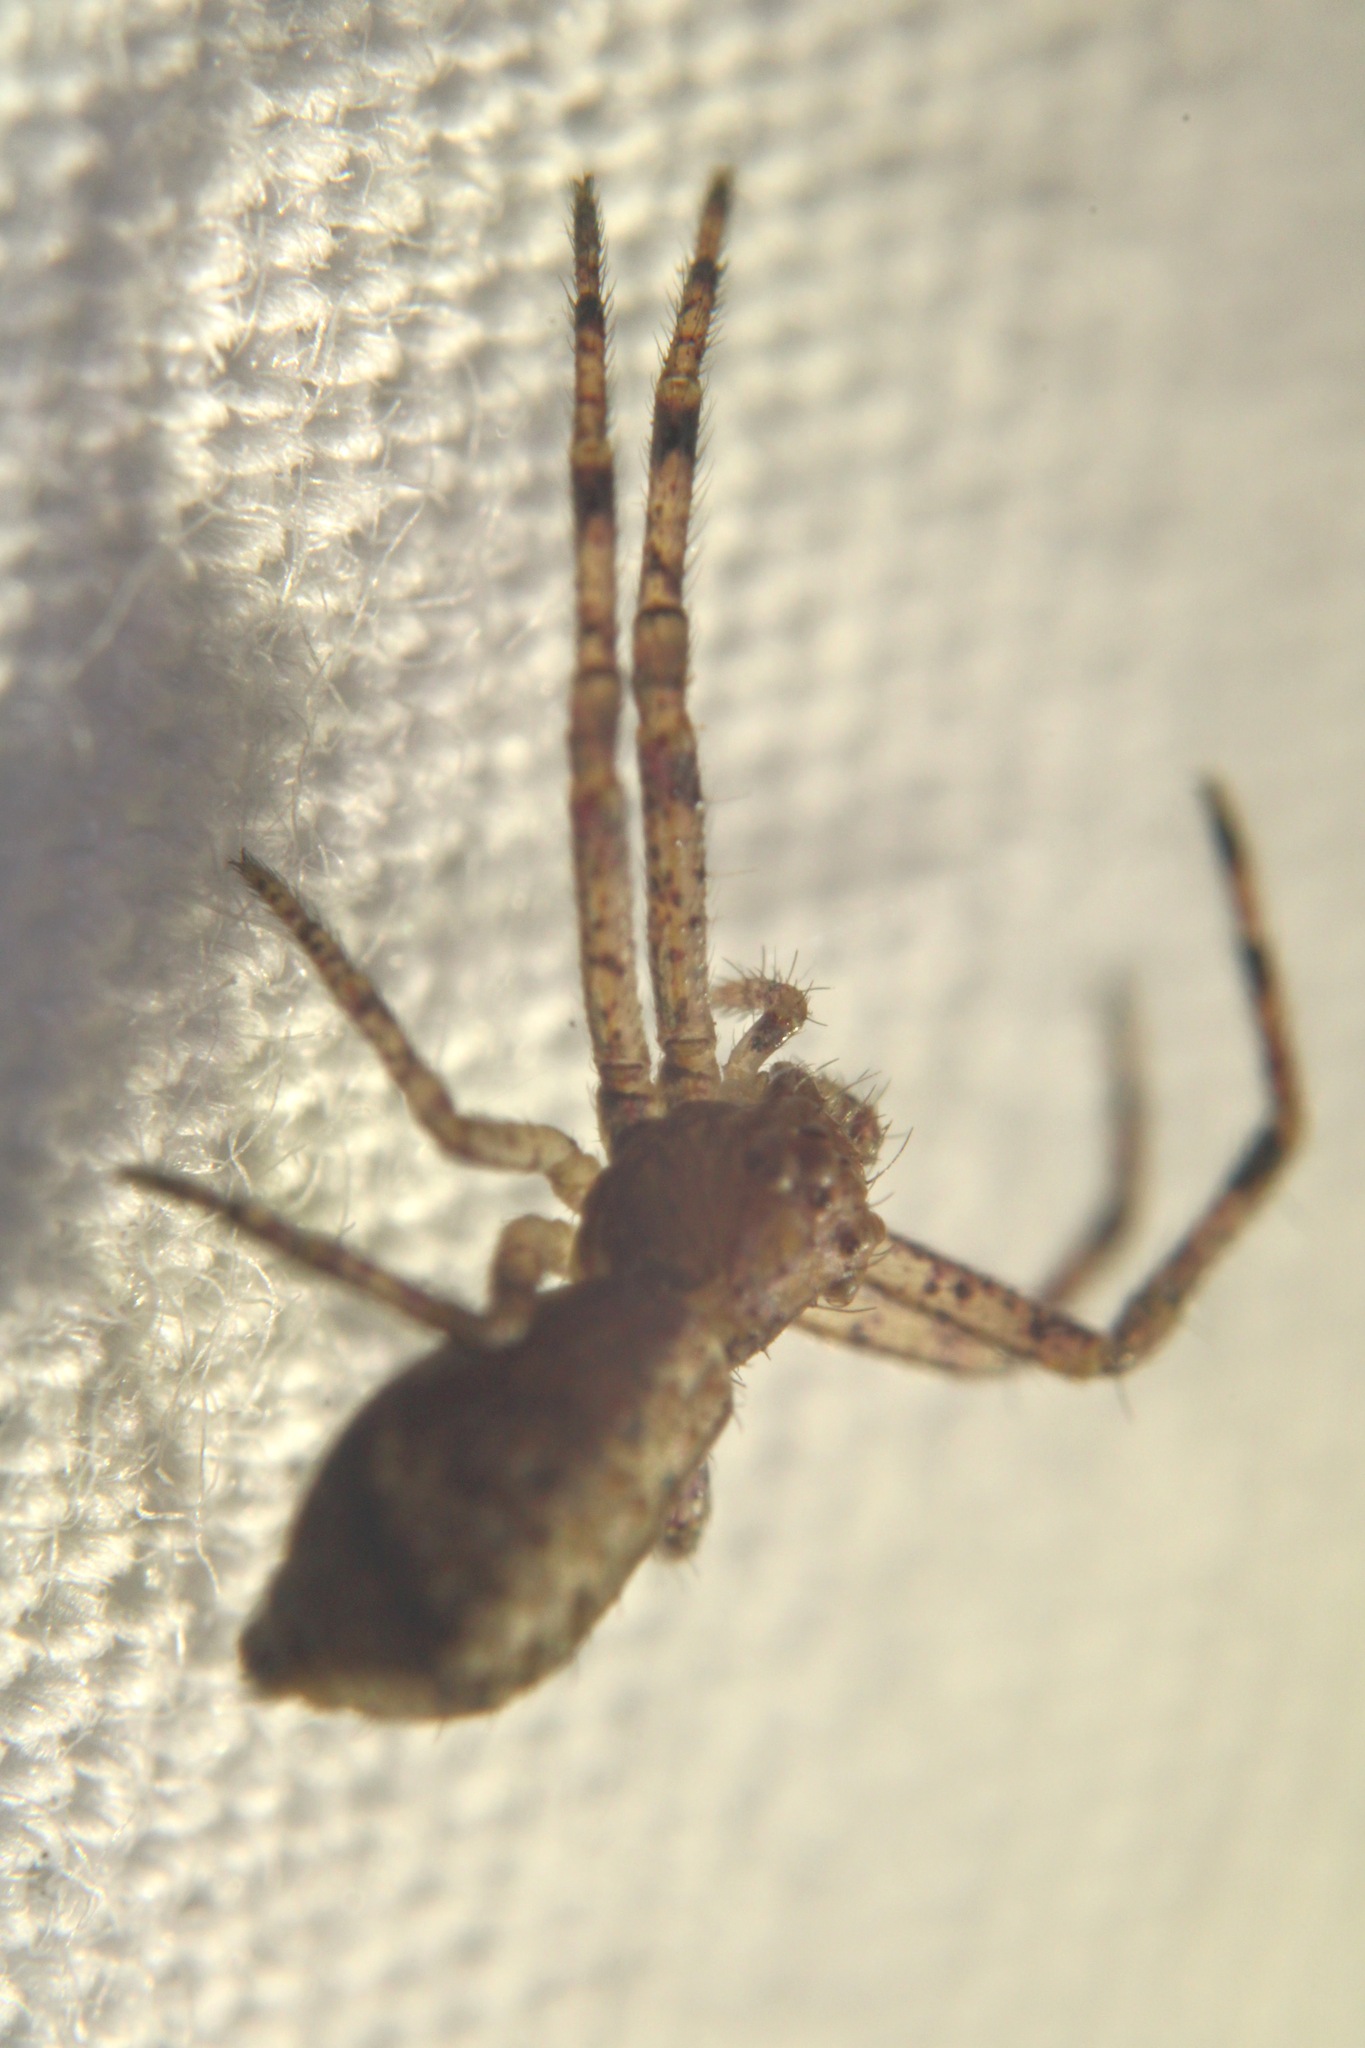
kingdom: Animalia
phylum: Arthropoda
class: Arachnida
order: Araneae
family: Thomisidae
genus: Tmarus
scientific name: Tmarus angulatus
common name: Tuberculated crab spider
